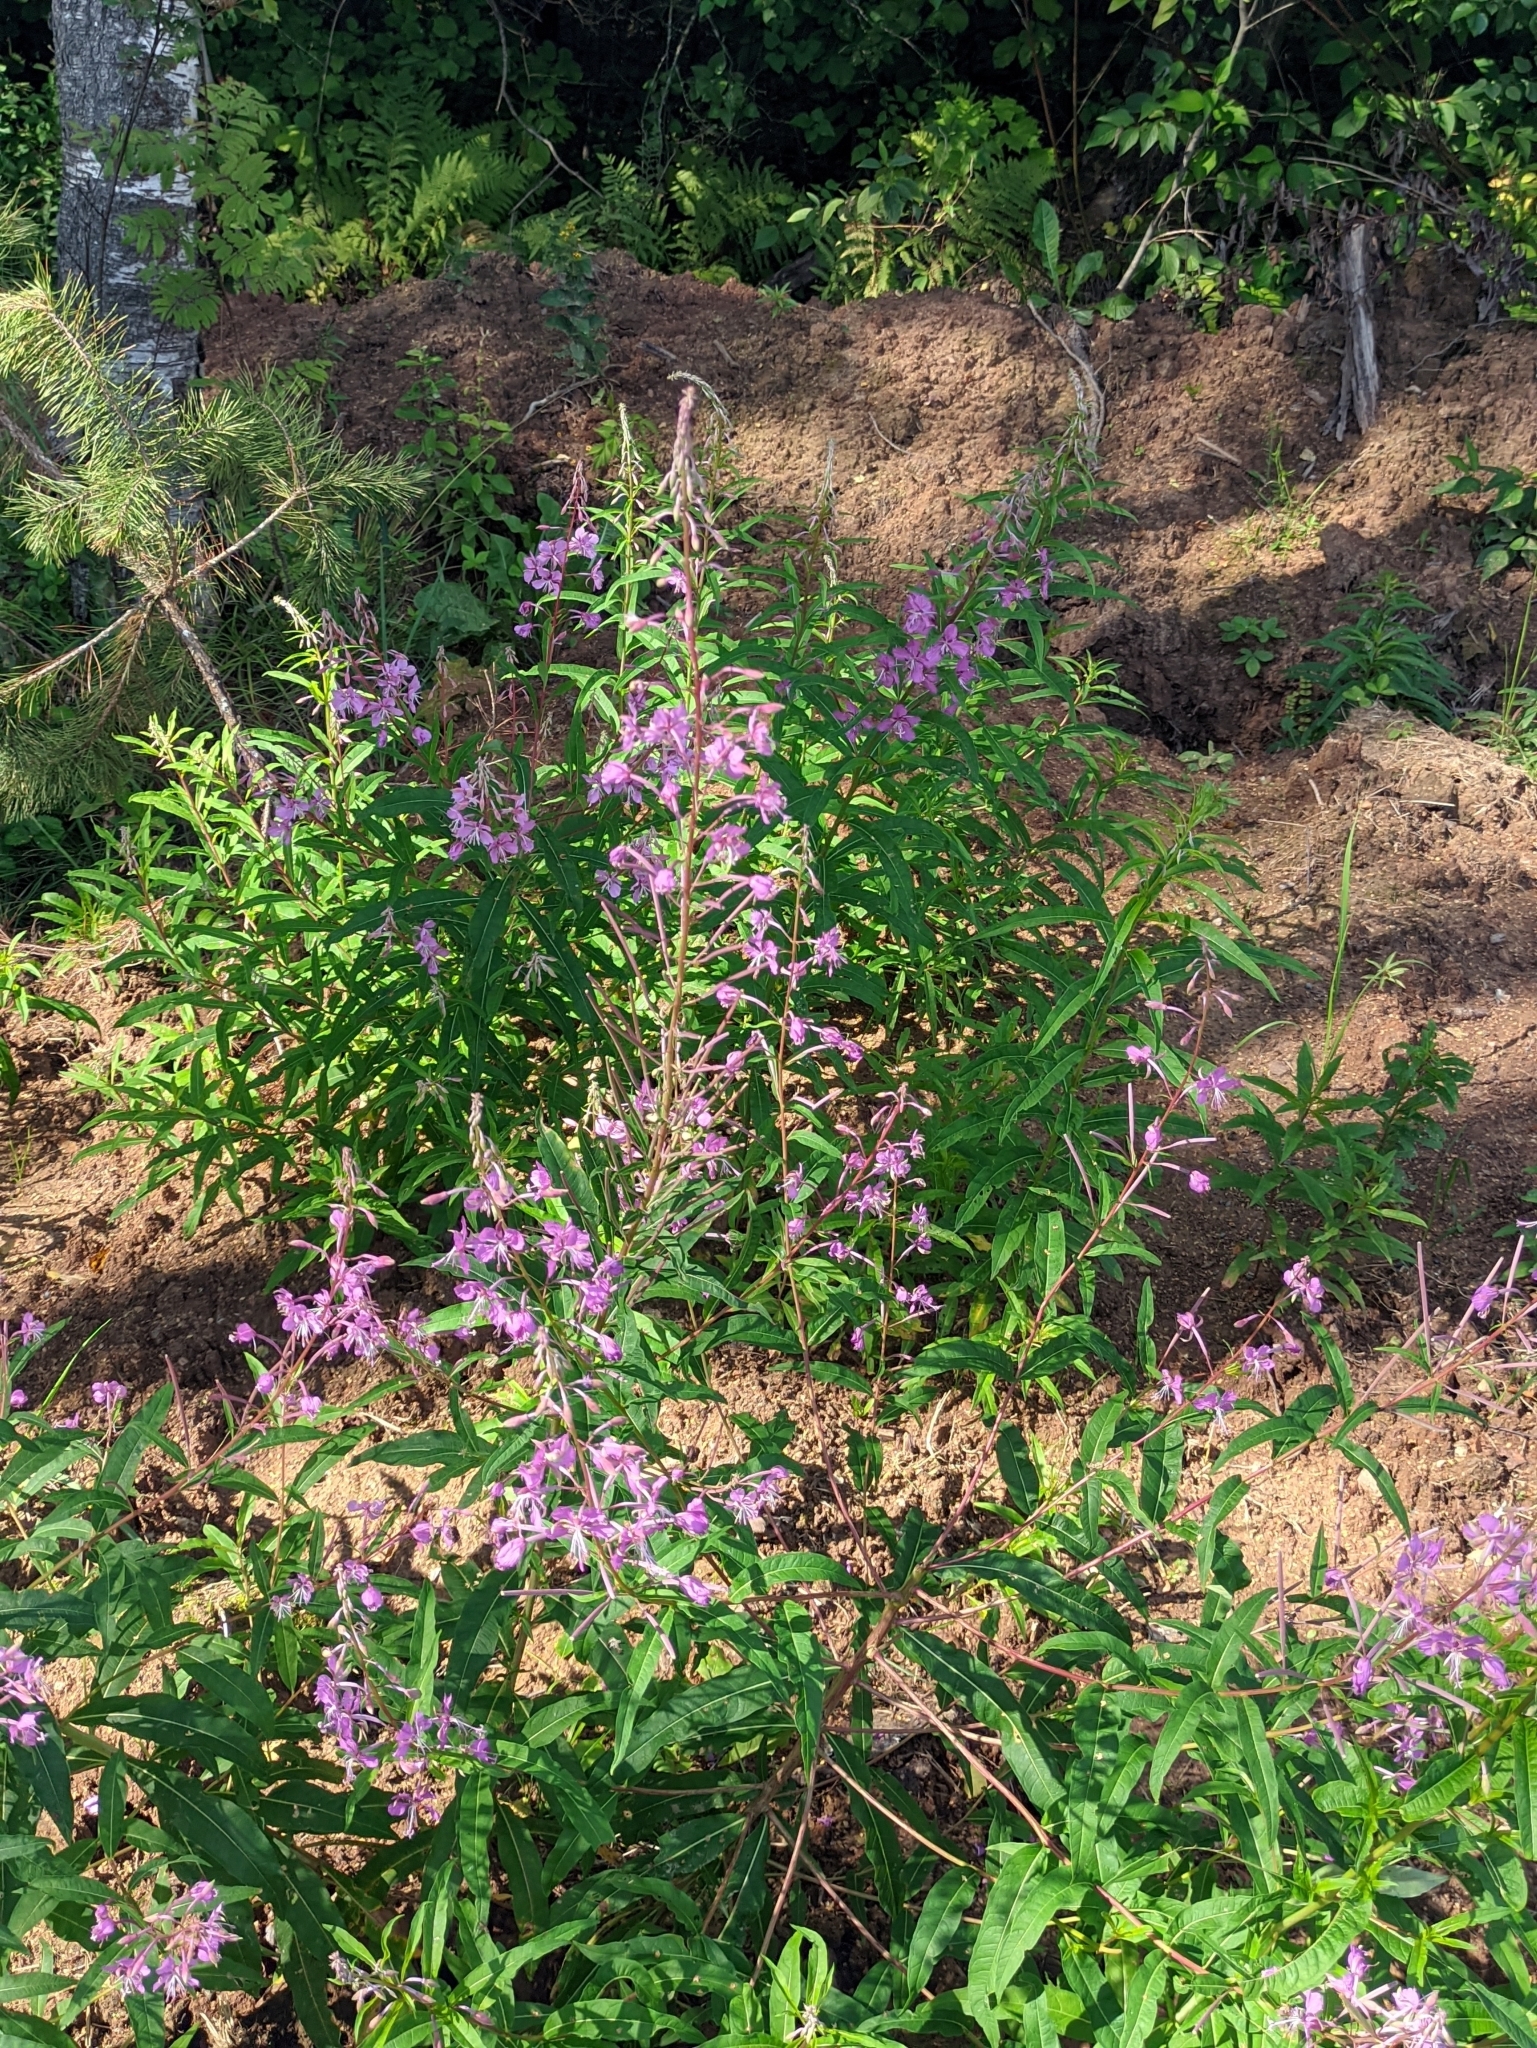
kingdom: Plantae
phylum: Tracheophyta
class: Magnoliopsida
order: Myrtales
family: Onagraceae
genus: Chamaenerion
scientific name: Chamaenerion angustifolium
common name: Fireweed
